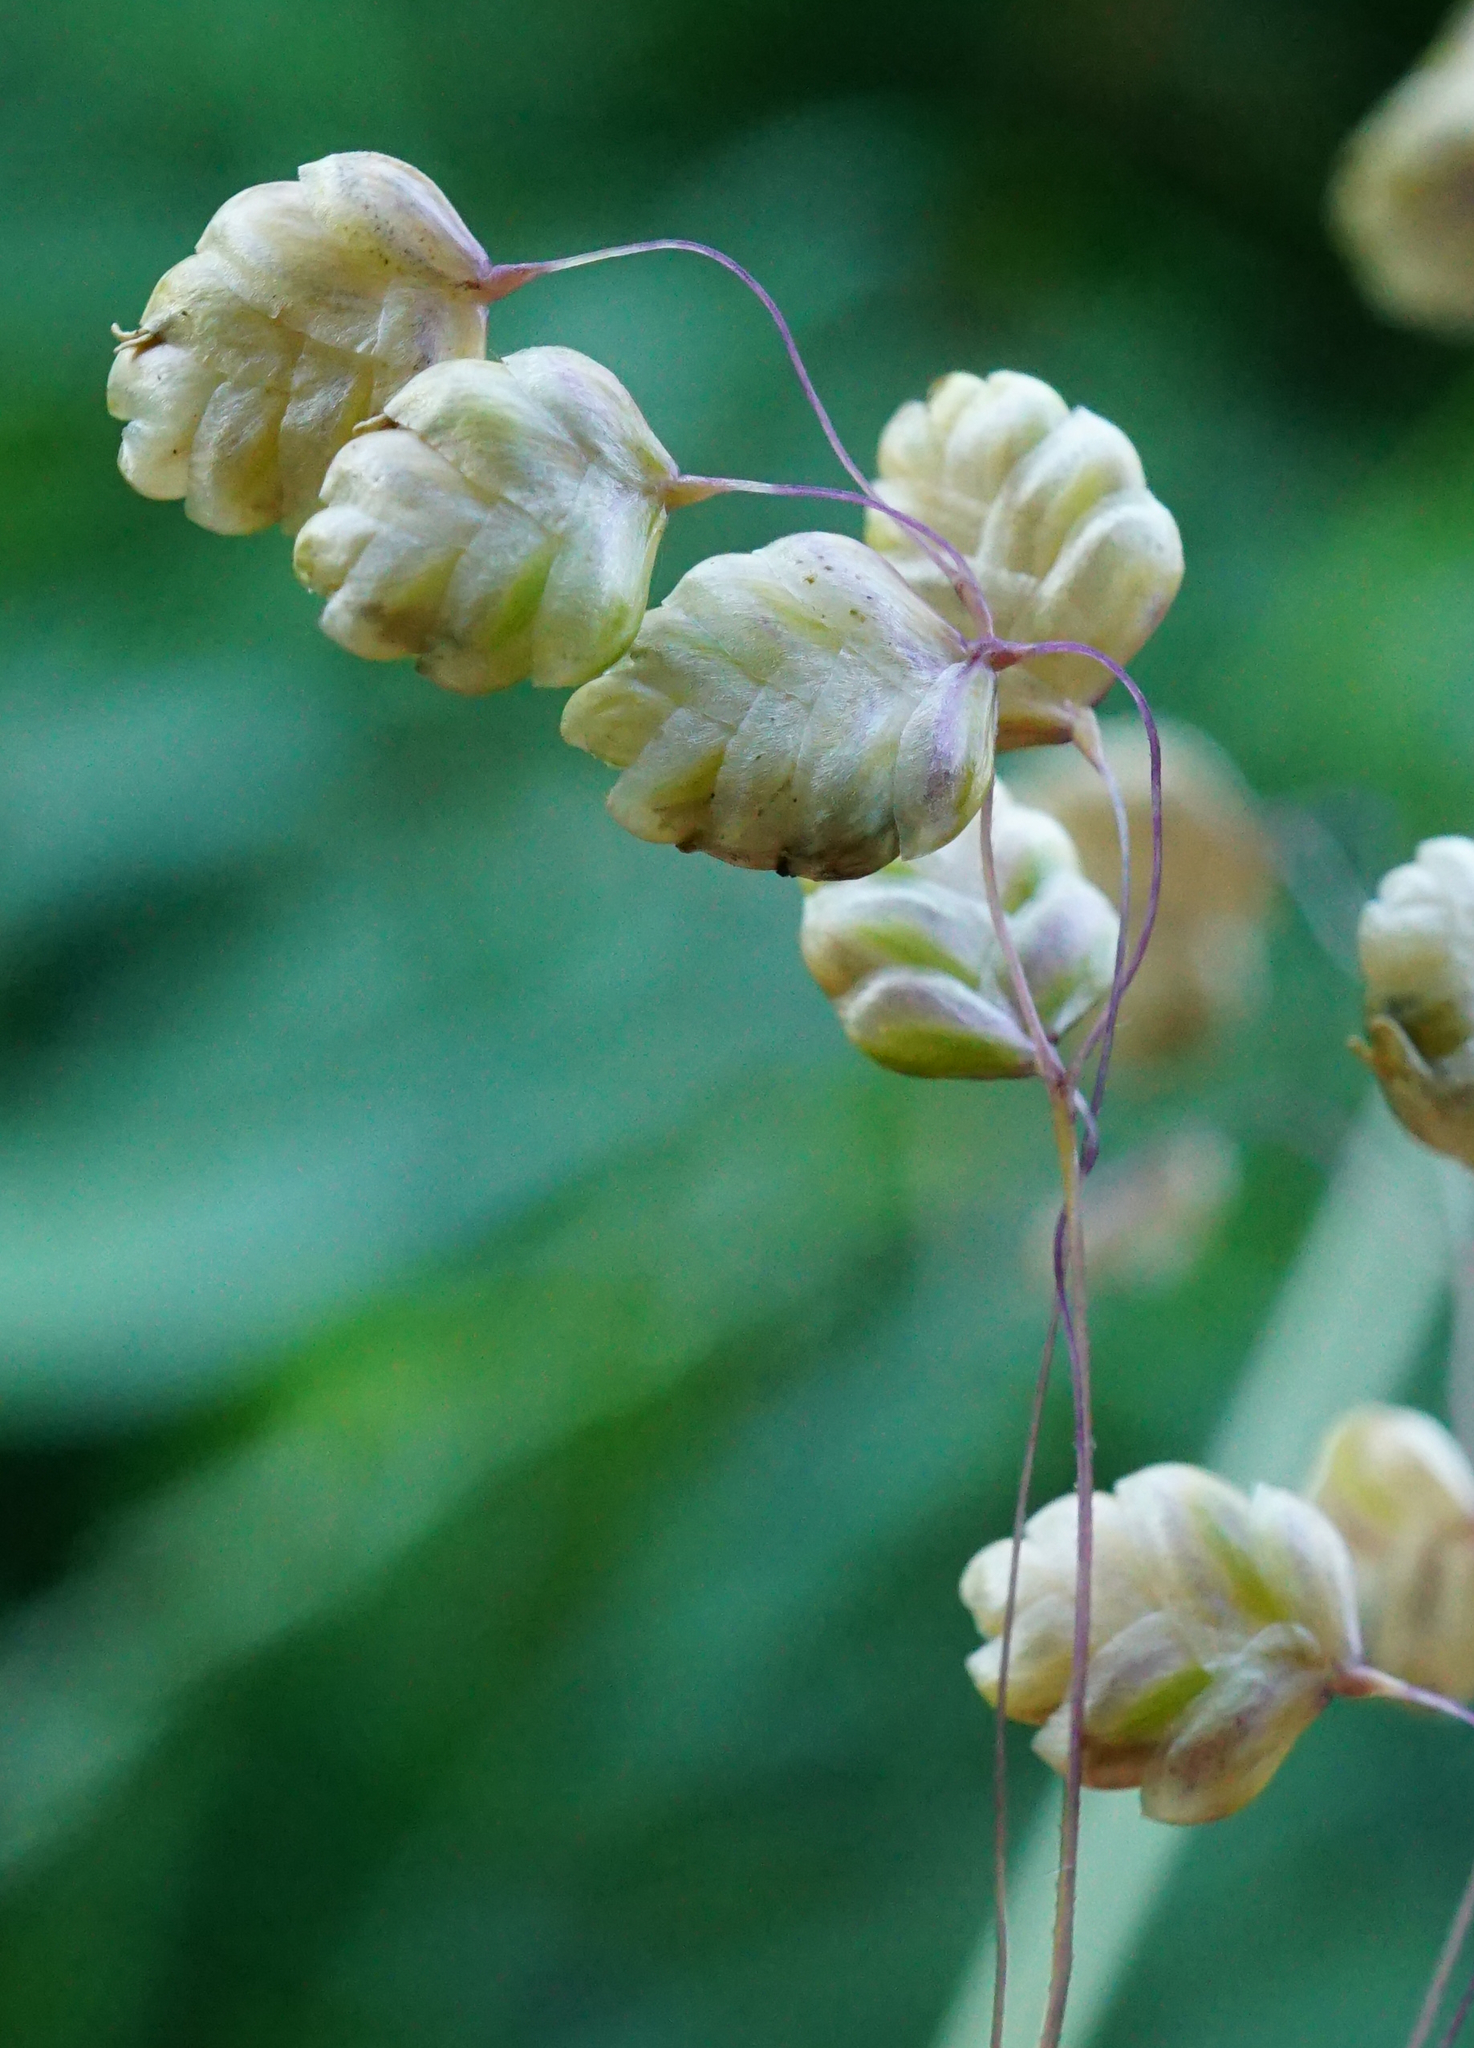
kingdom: Plantae
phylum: Tracheophyta
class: Liliopsida
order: Poales
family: Poaceae
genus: Briza
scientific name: Briza media
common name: Quaking grass
